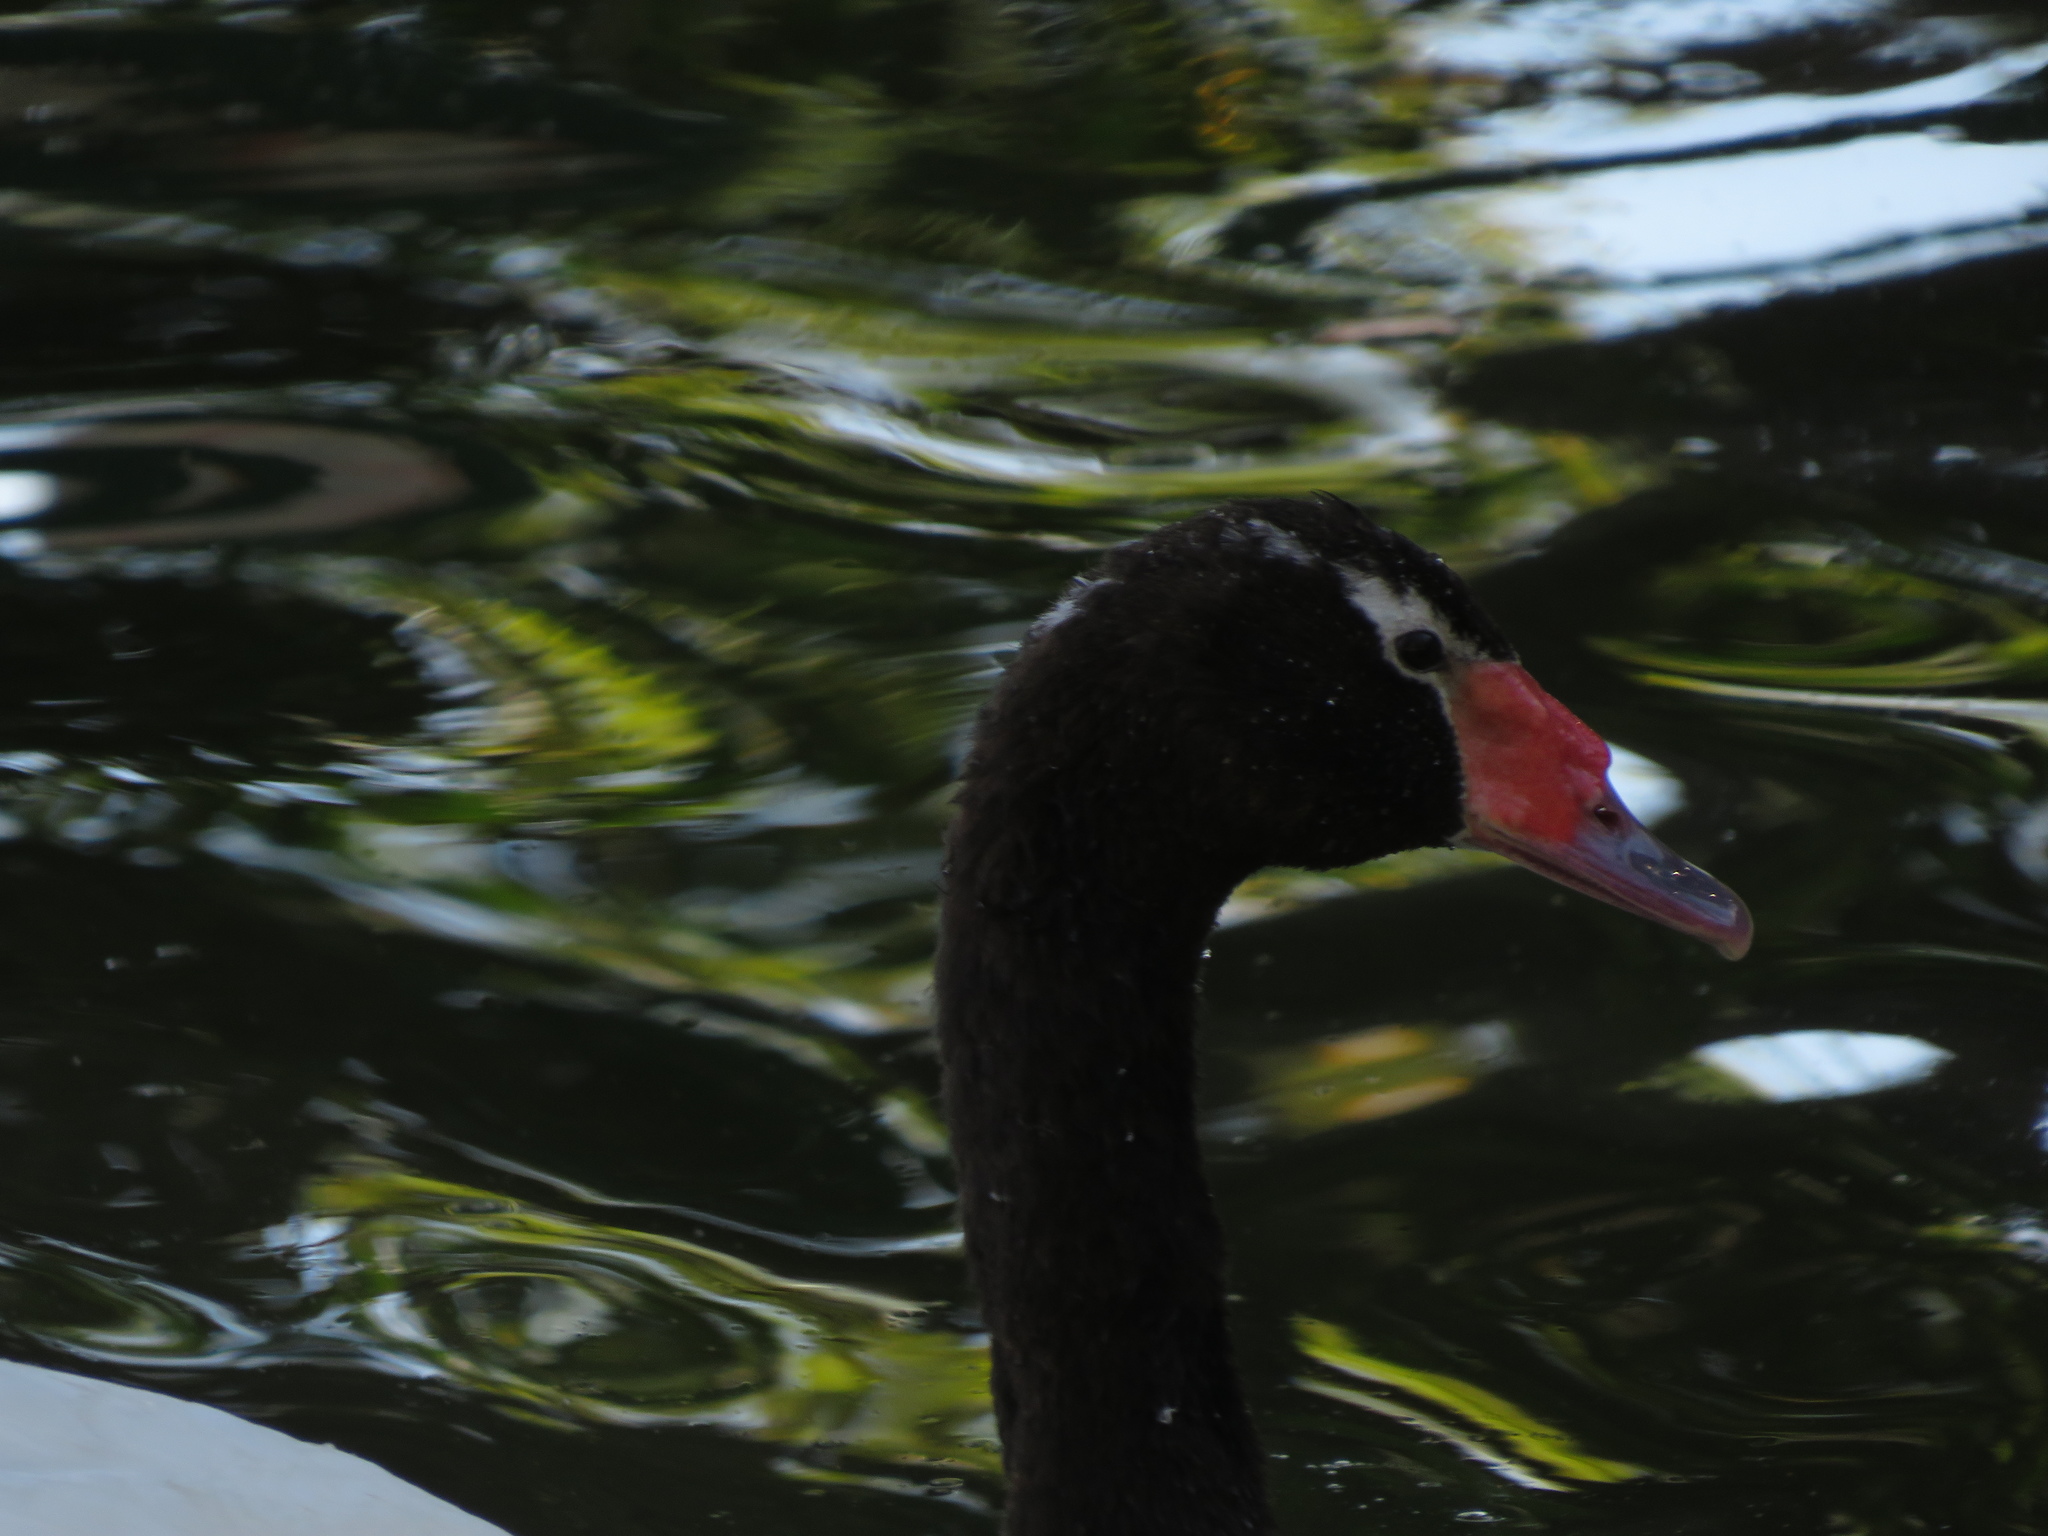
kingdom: Animalia
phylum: Chordata
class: Aves
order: Anseriformes
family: Anatidae
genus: Cygnus
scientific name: Cygnus melancoryphus
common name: Black-necked swan
